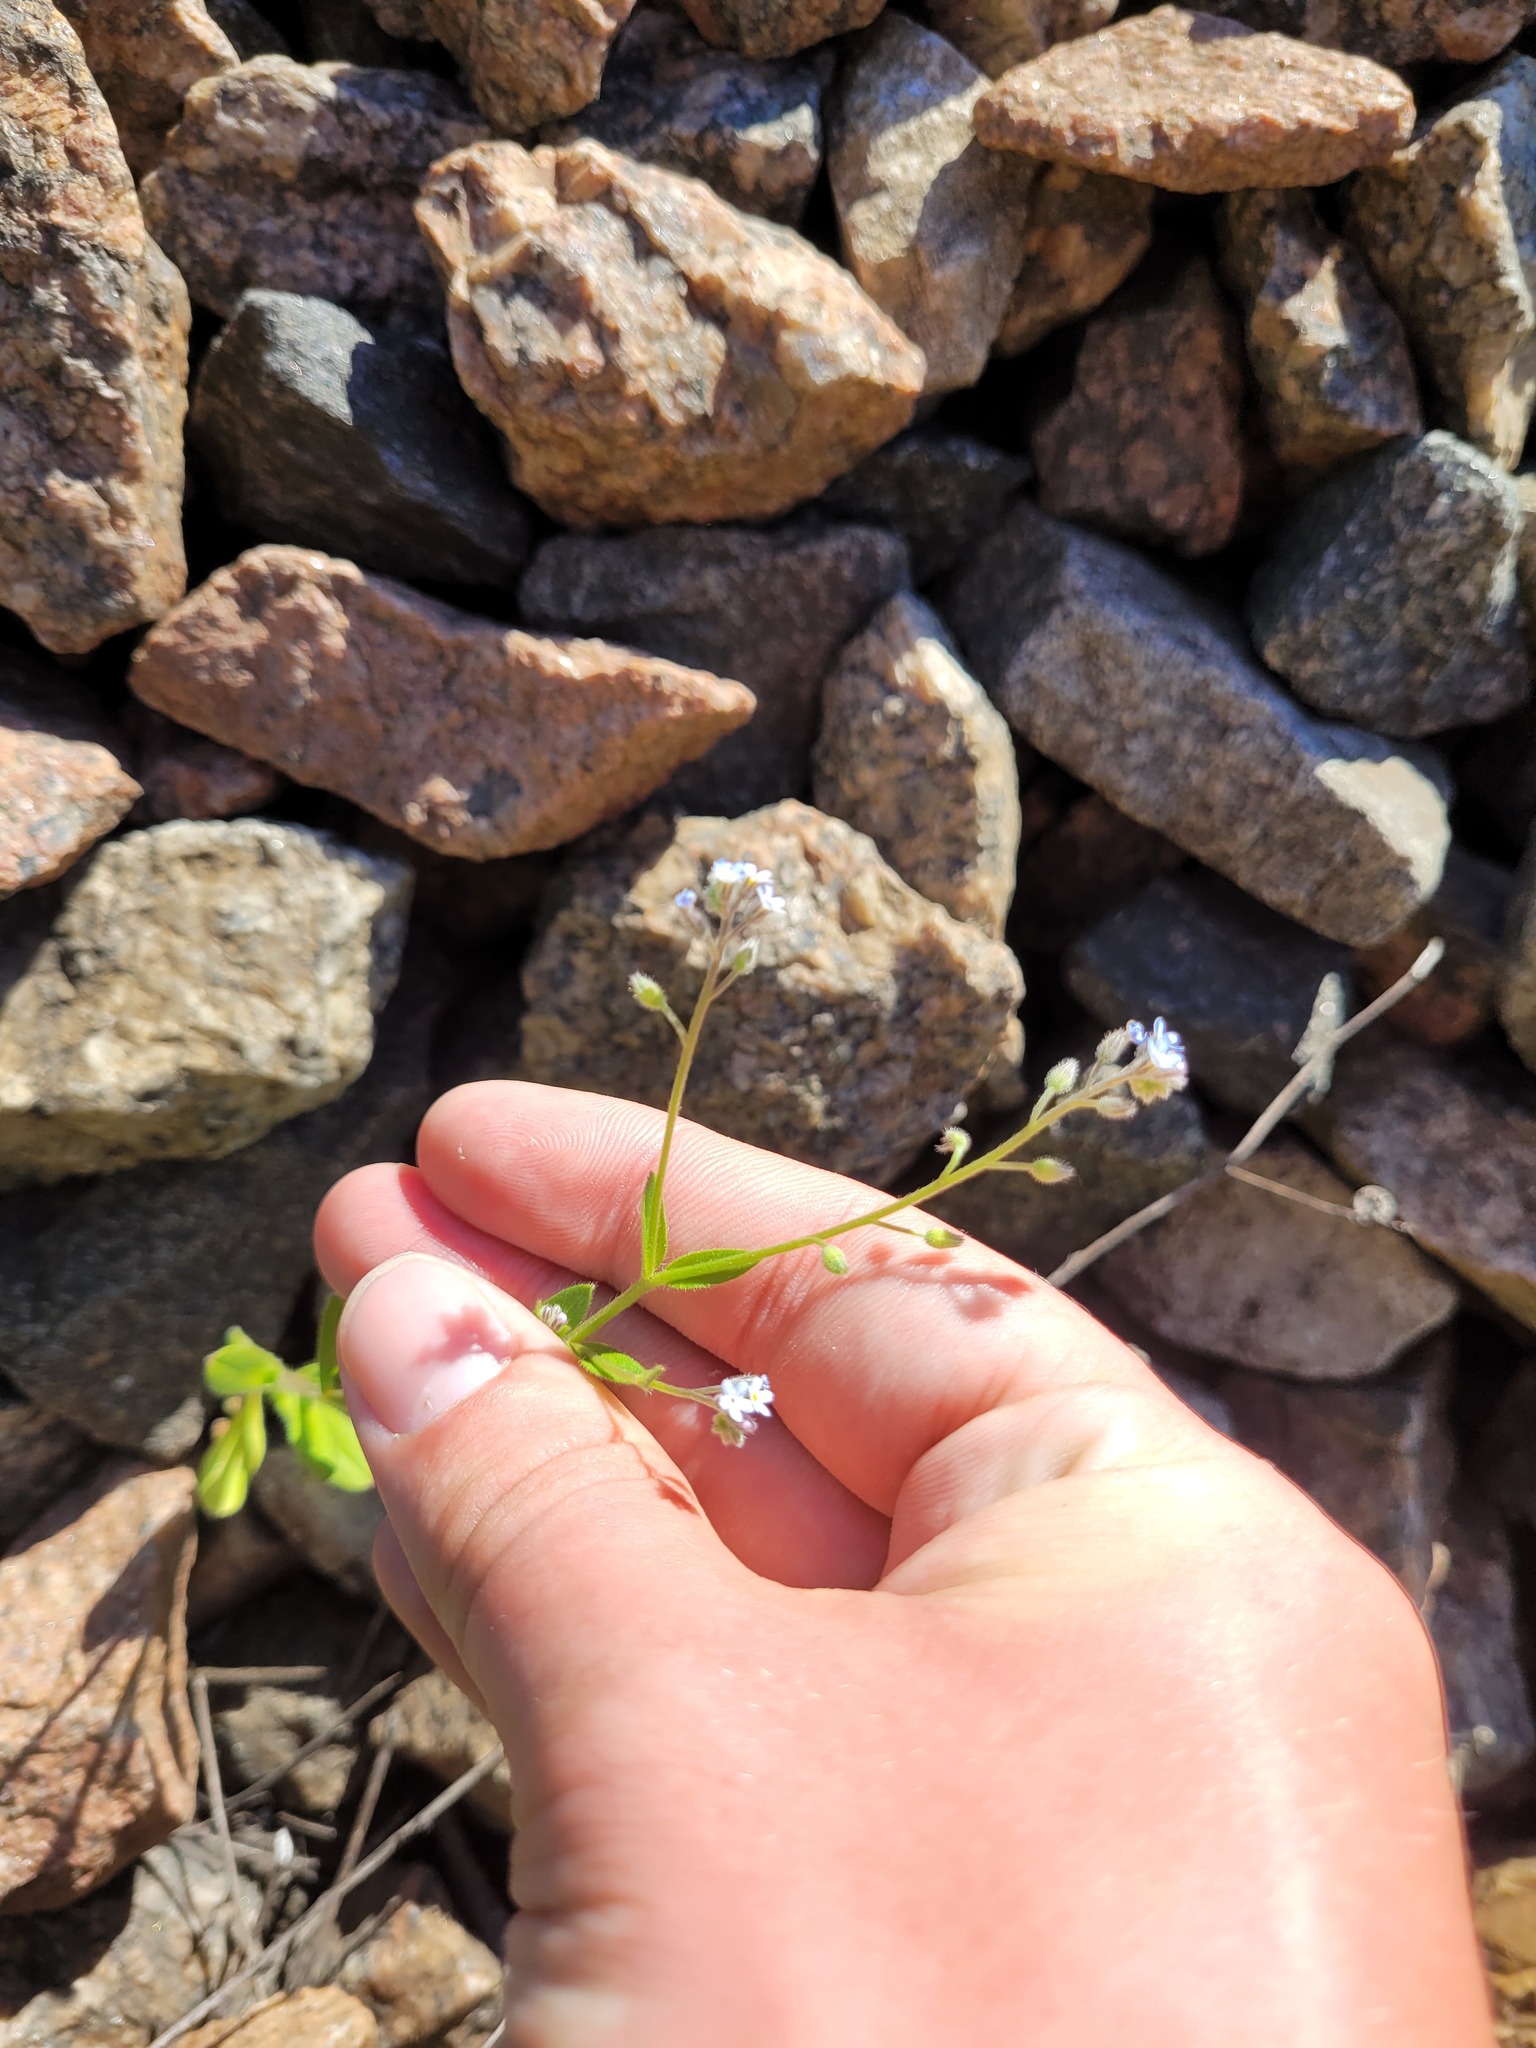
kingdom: Plantae
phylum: Tracheophyta
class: Magnoliopsida
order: Boraginales
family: Boraginaceae
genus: Myosotis
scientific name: Myosotis arvensis
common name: Field forget-me-not
